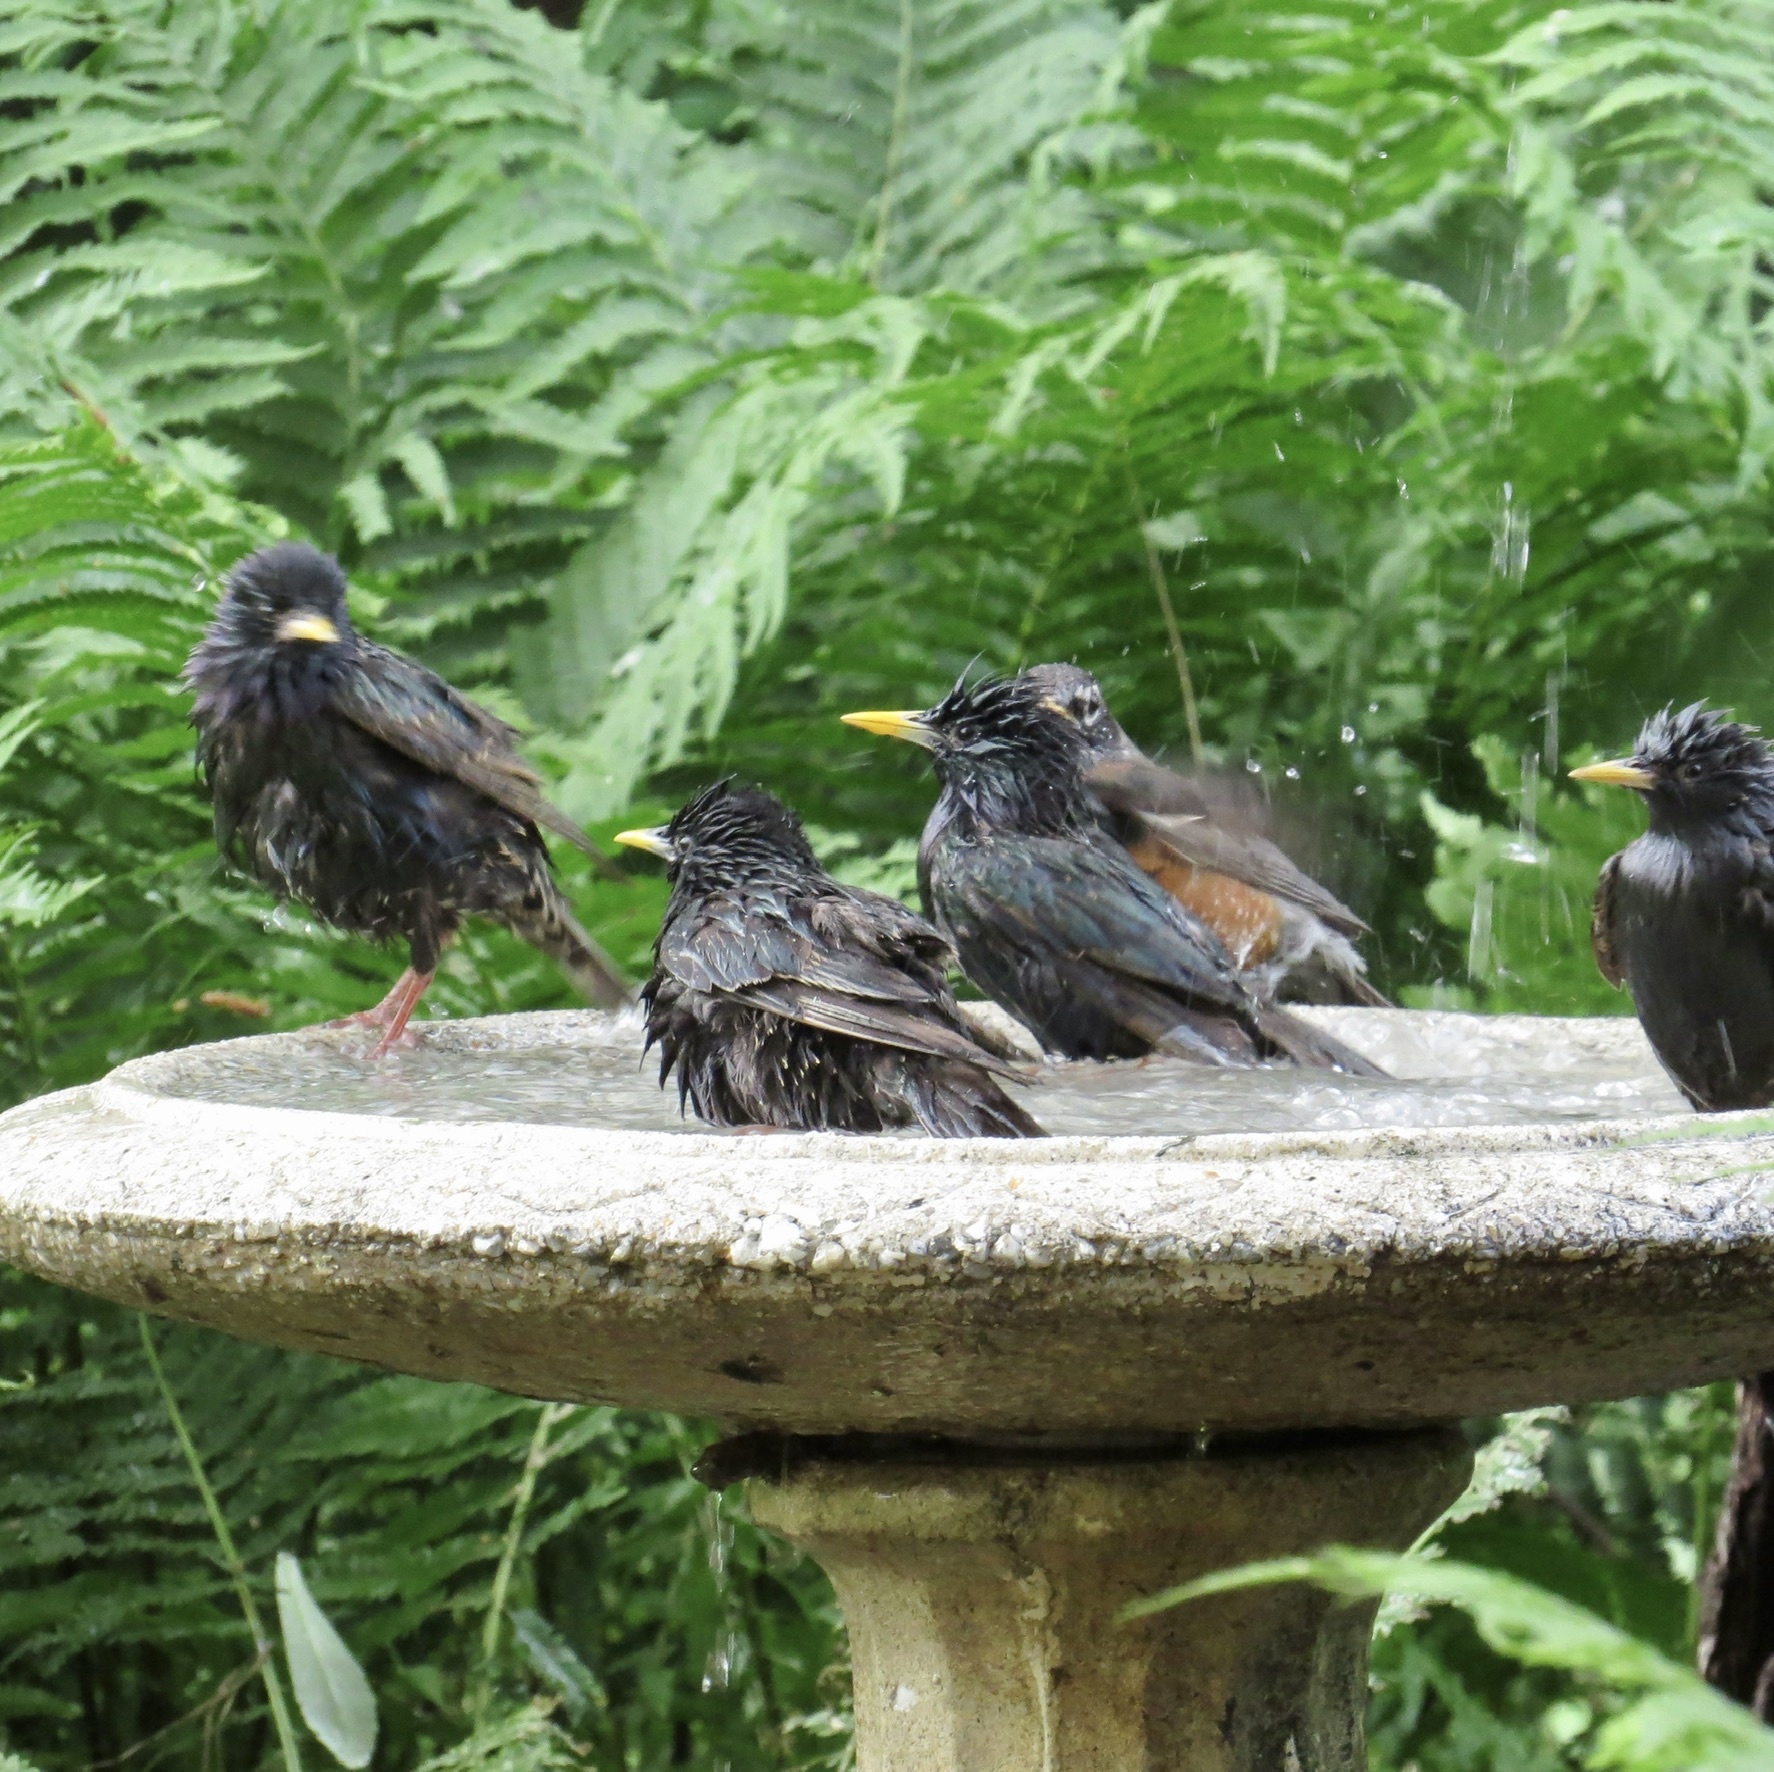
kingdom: Animalia
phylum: Chordata
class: Aves
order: Passeriformes
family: Sturnidae
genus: Sturnus
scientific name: Sturnus vulgaris
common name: Common starling
